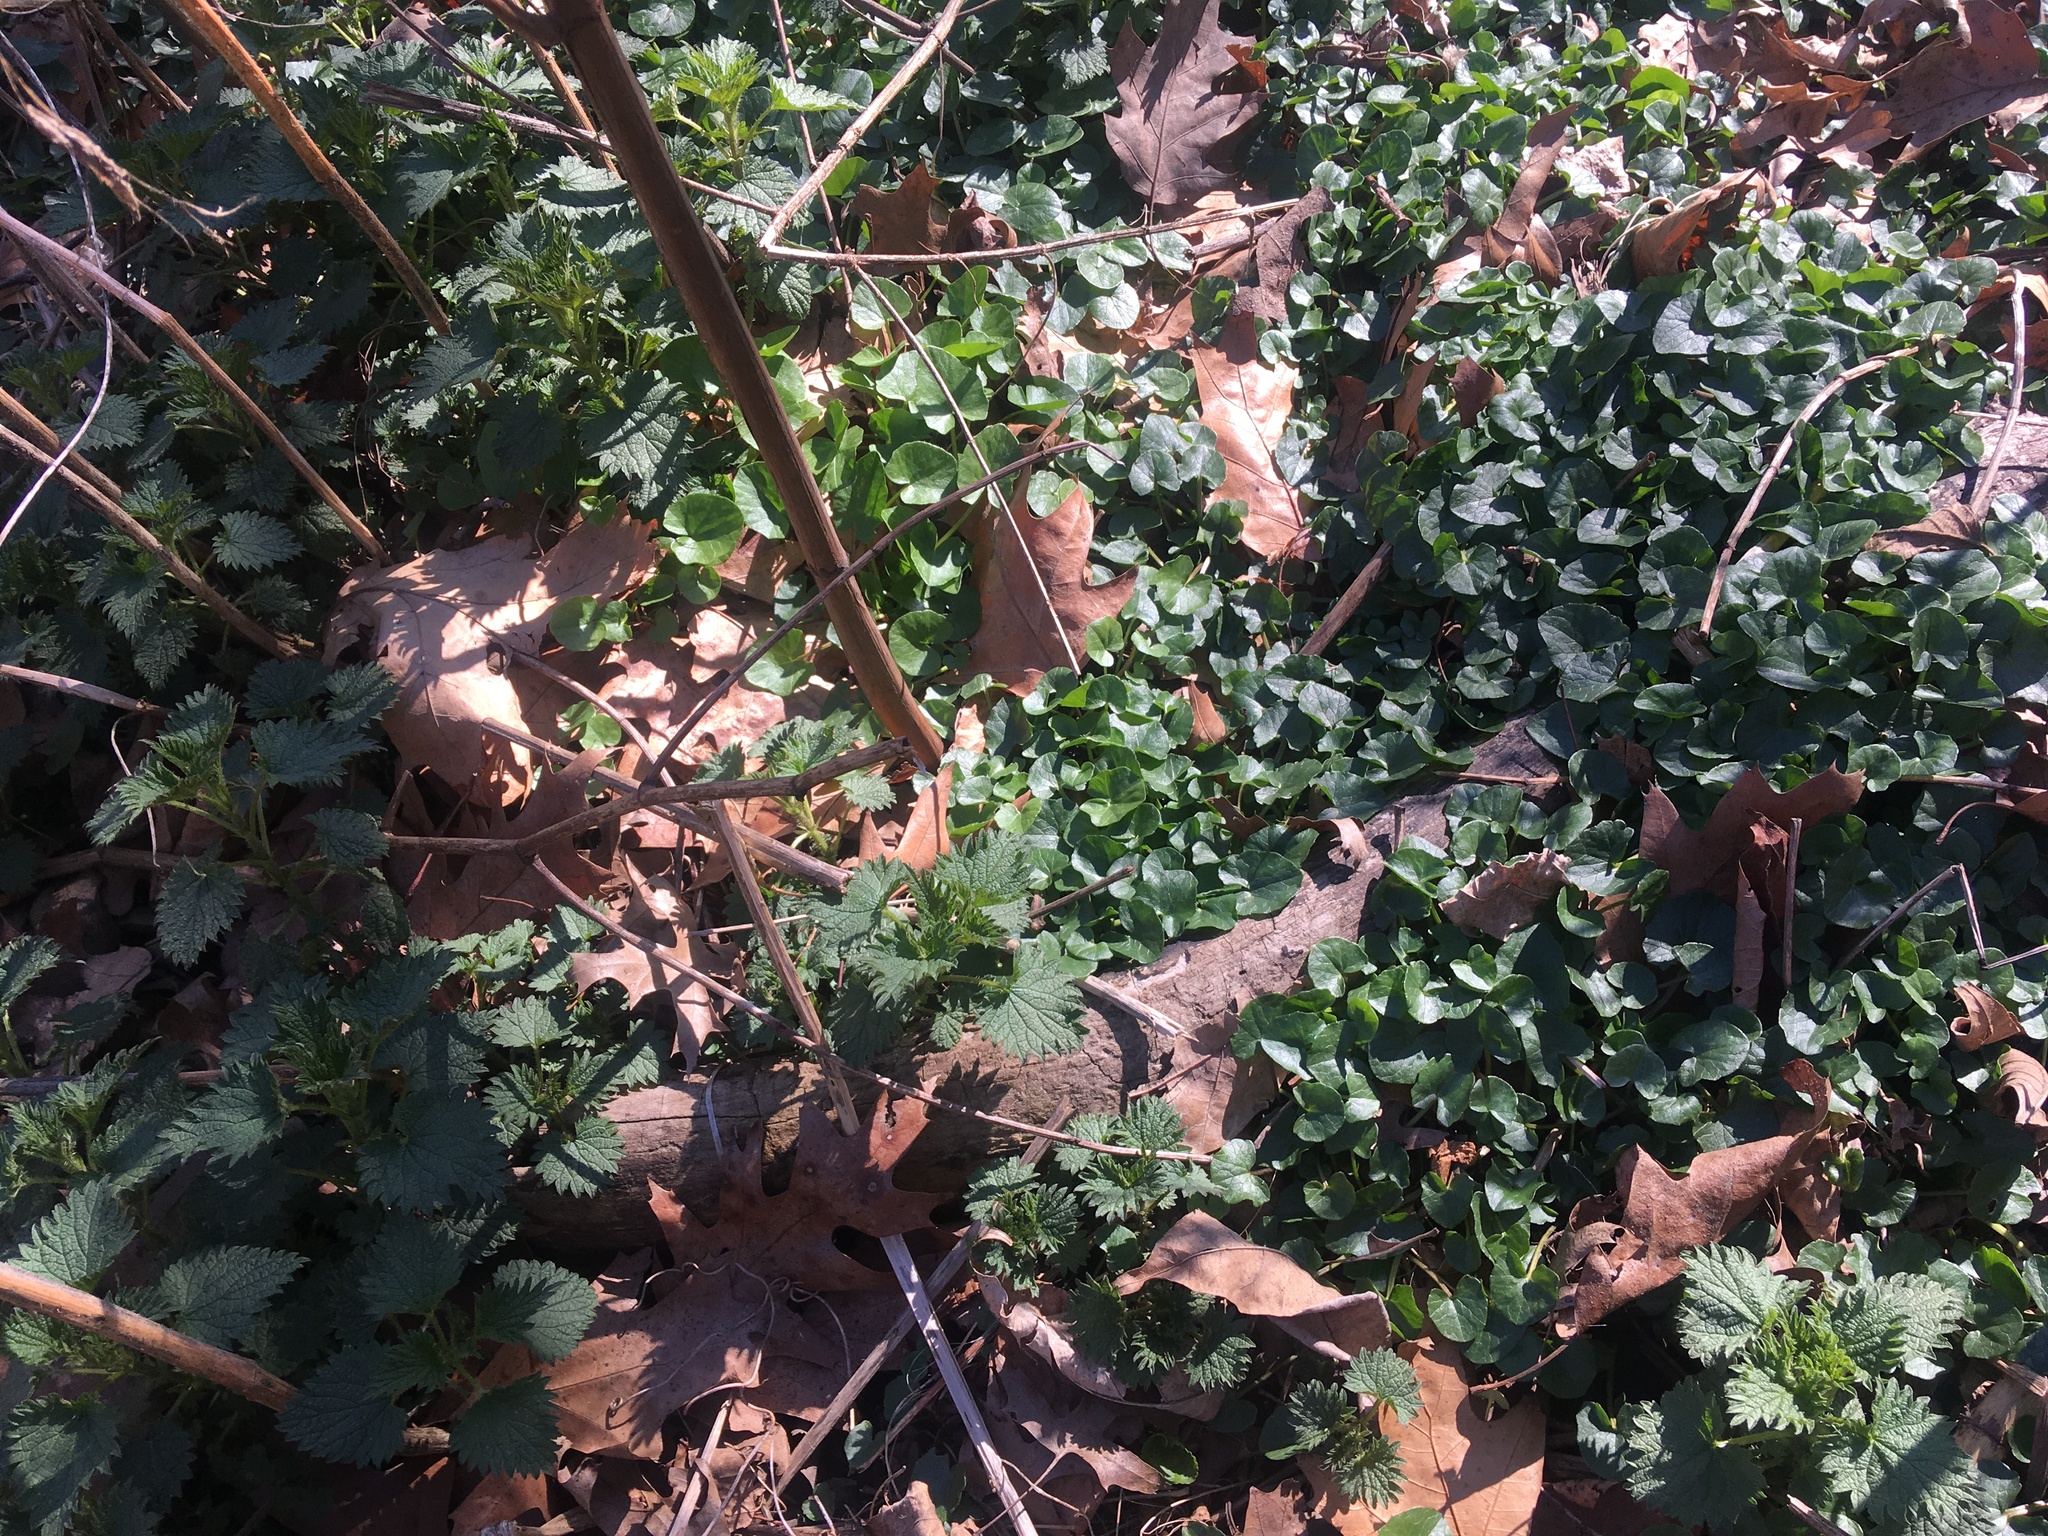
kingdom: Plantae
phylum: Tracheophyta
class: Magnoliopsida
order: Ranunculales
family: Ranunculaceae
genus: Ficaria
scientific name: Ficaria verna
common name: Lesser celandine
